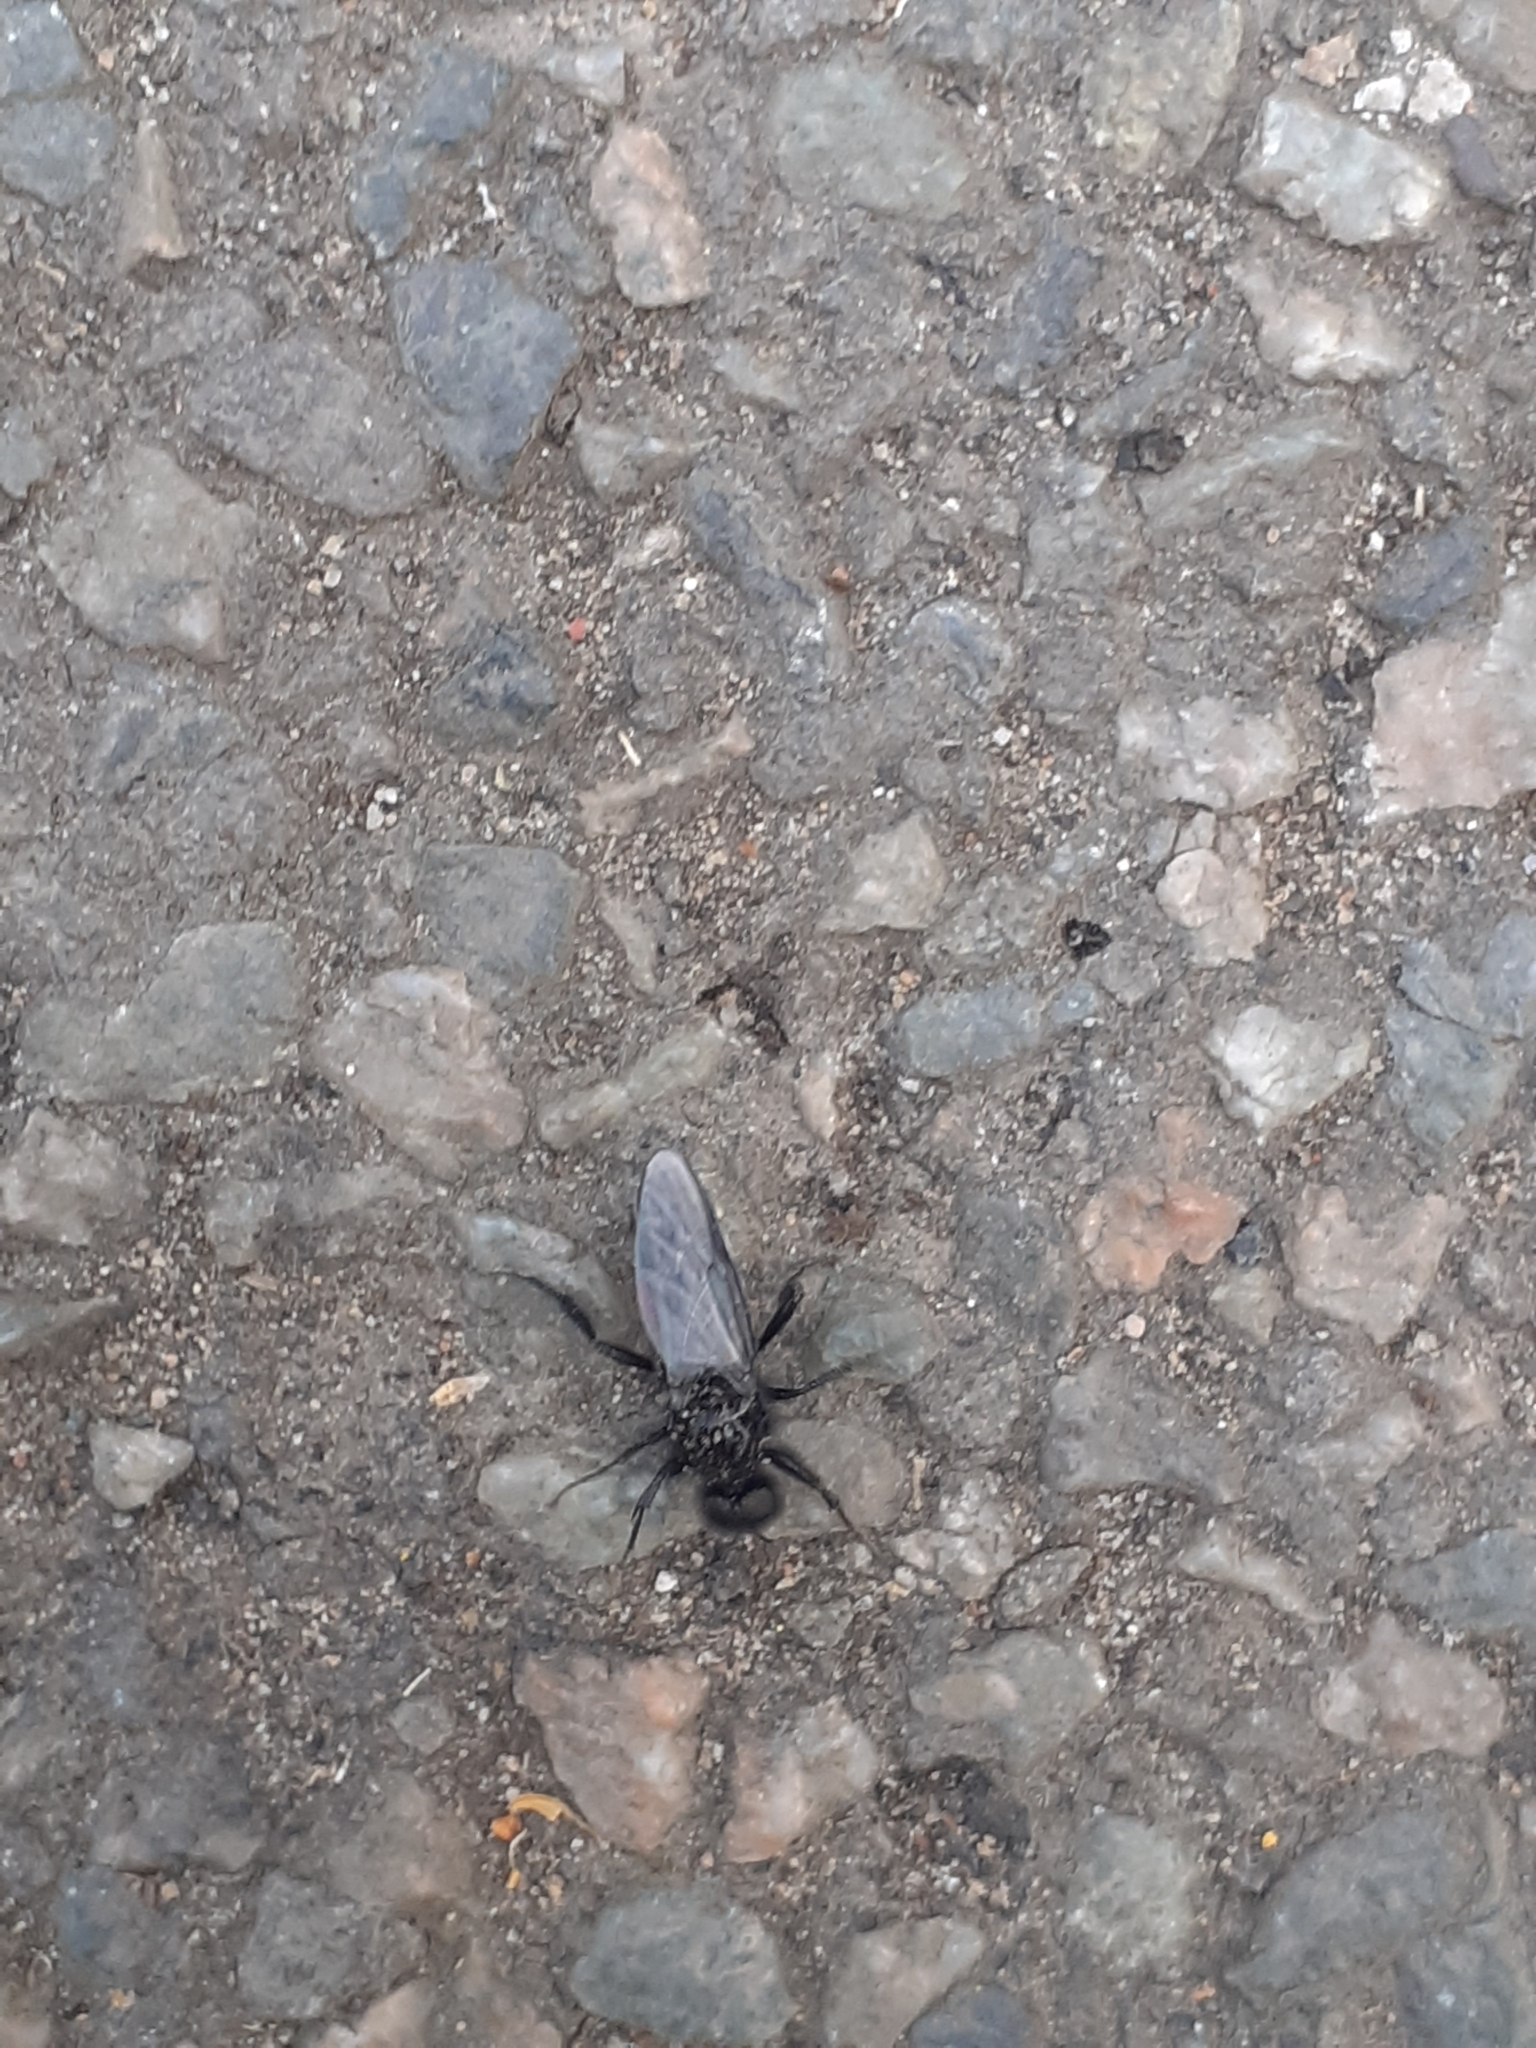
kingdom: Animalia
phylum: Arthropoda
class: Insecta
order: Diptera
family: Bibionidae
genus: Bibio
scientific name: Bibio marci
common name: St marks fly
